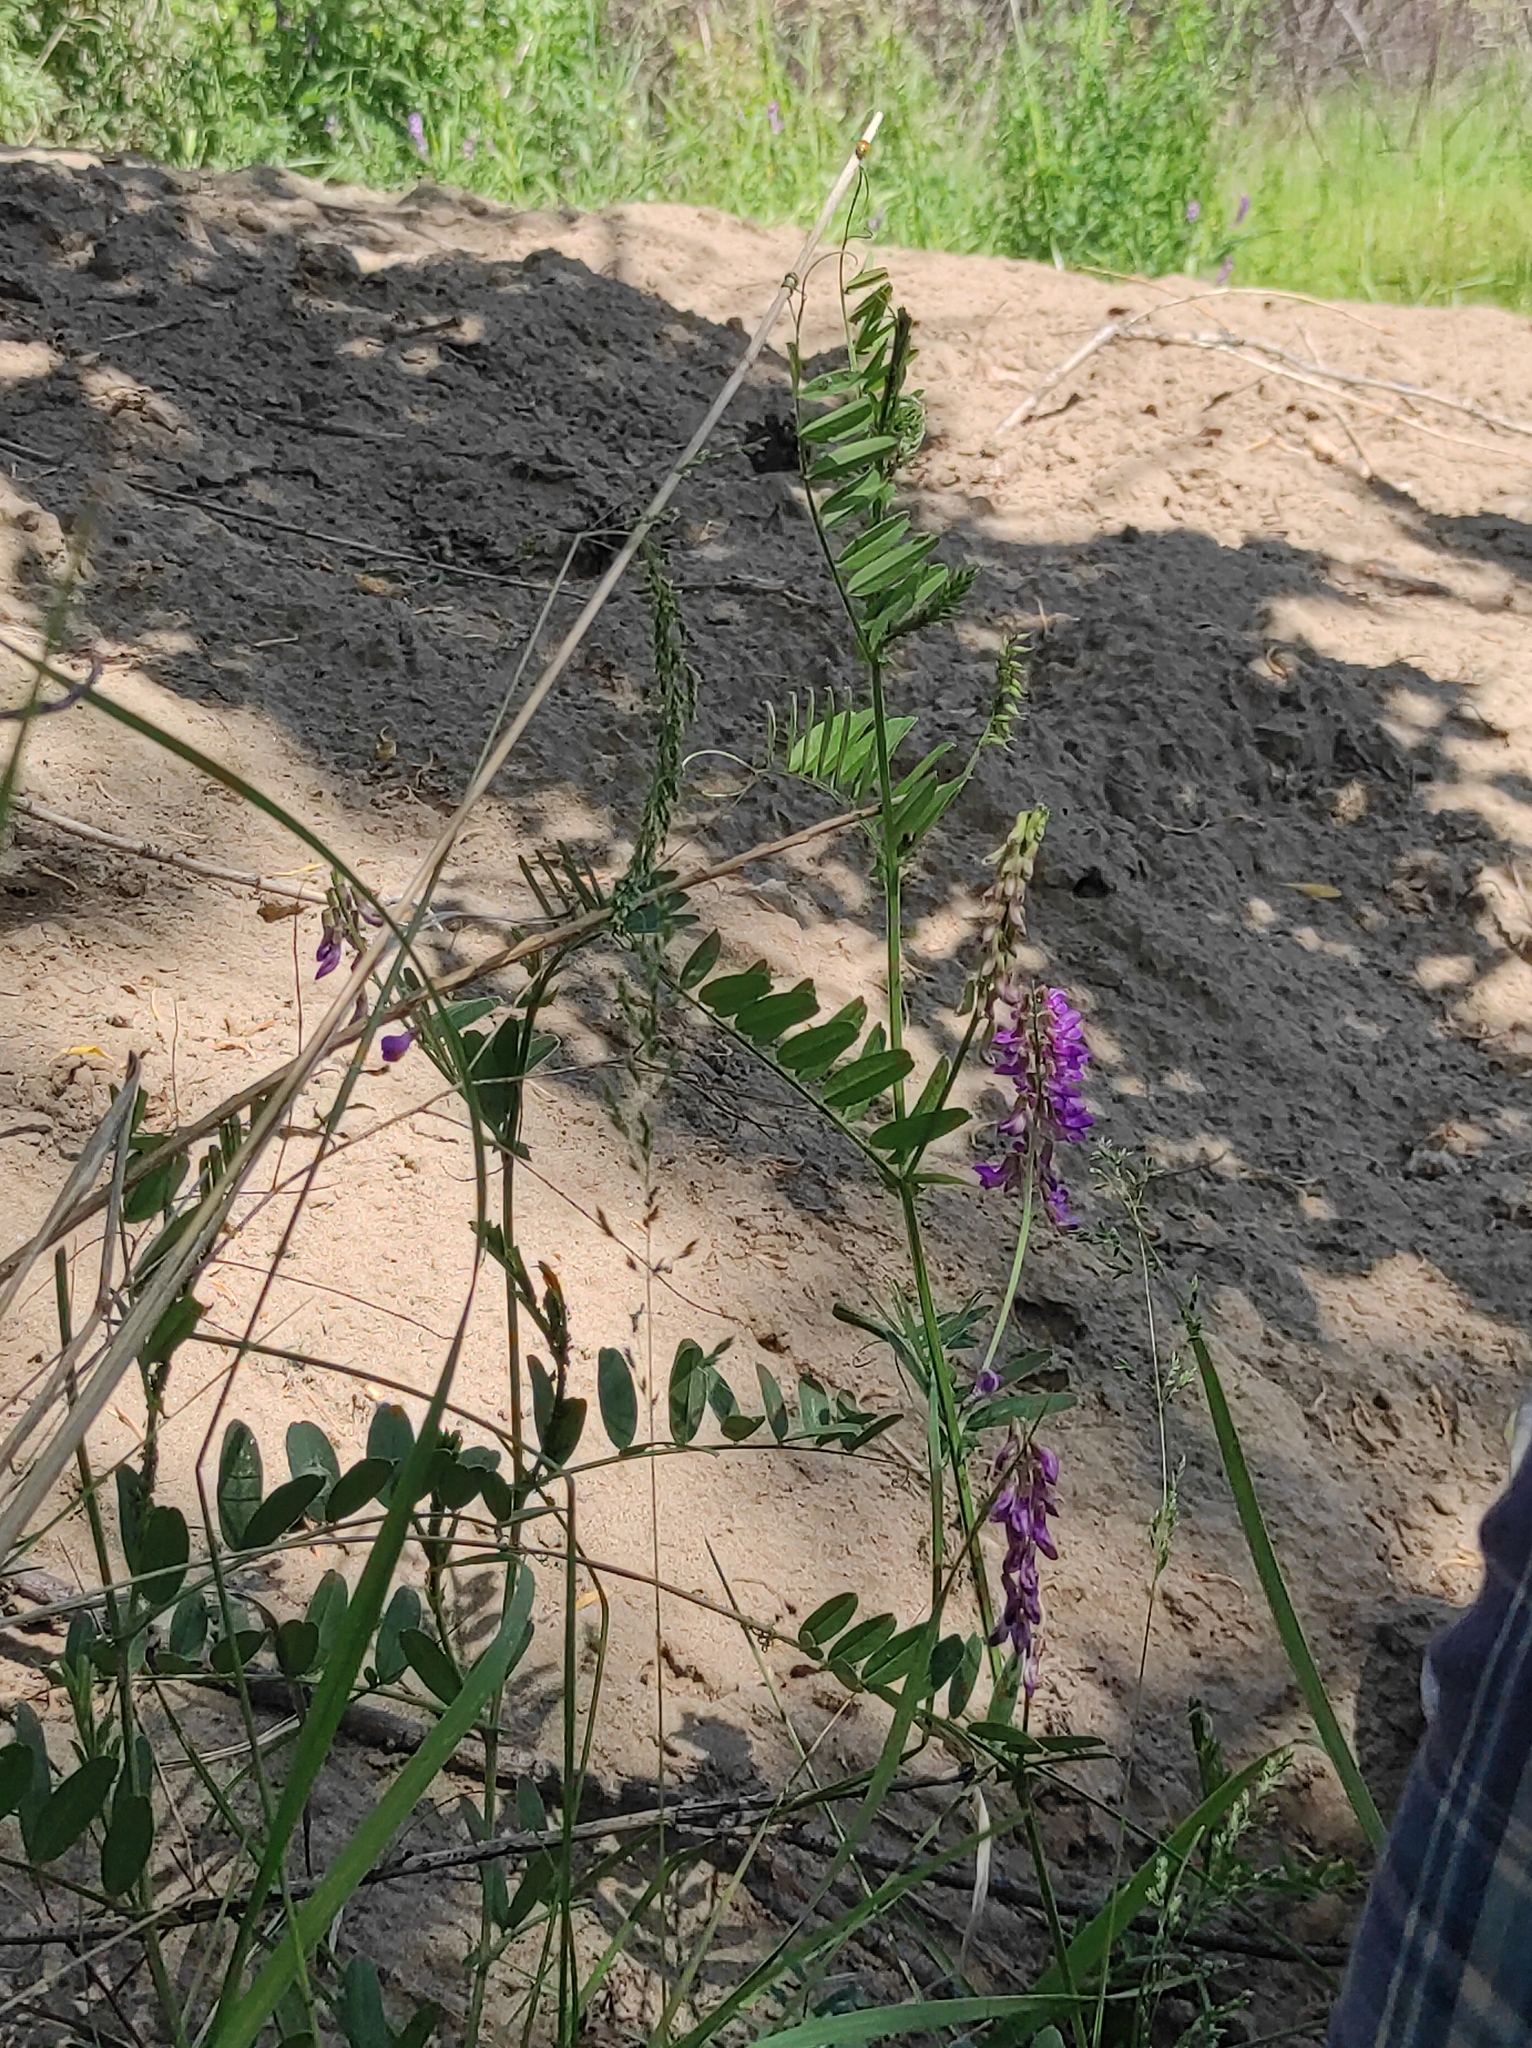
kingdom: Plantae
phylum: Tracheophyta
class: Magnoliopsida
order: Fabales
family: Fabaceae
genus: Vicia
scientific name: Vicia amoena
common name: Cheder ebs
